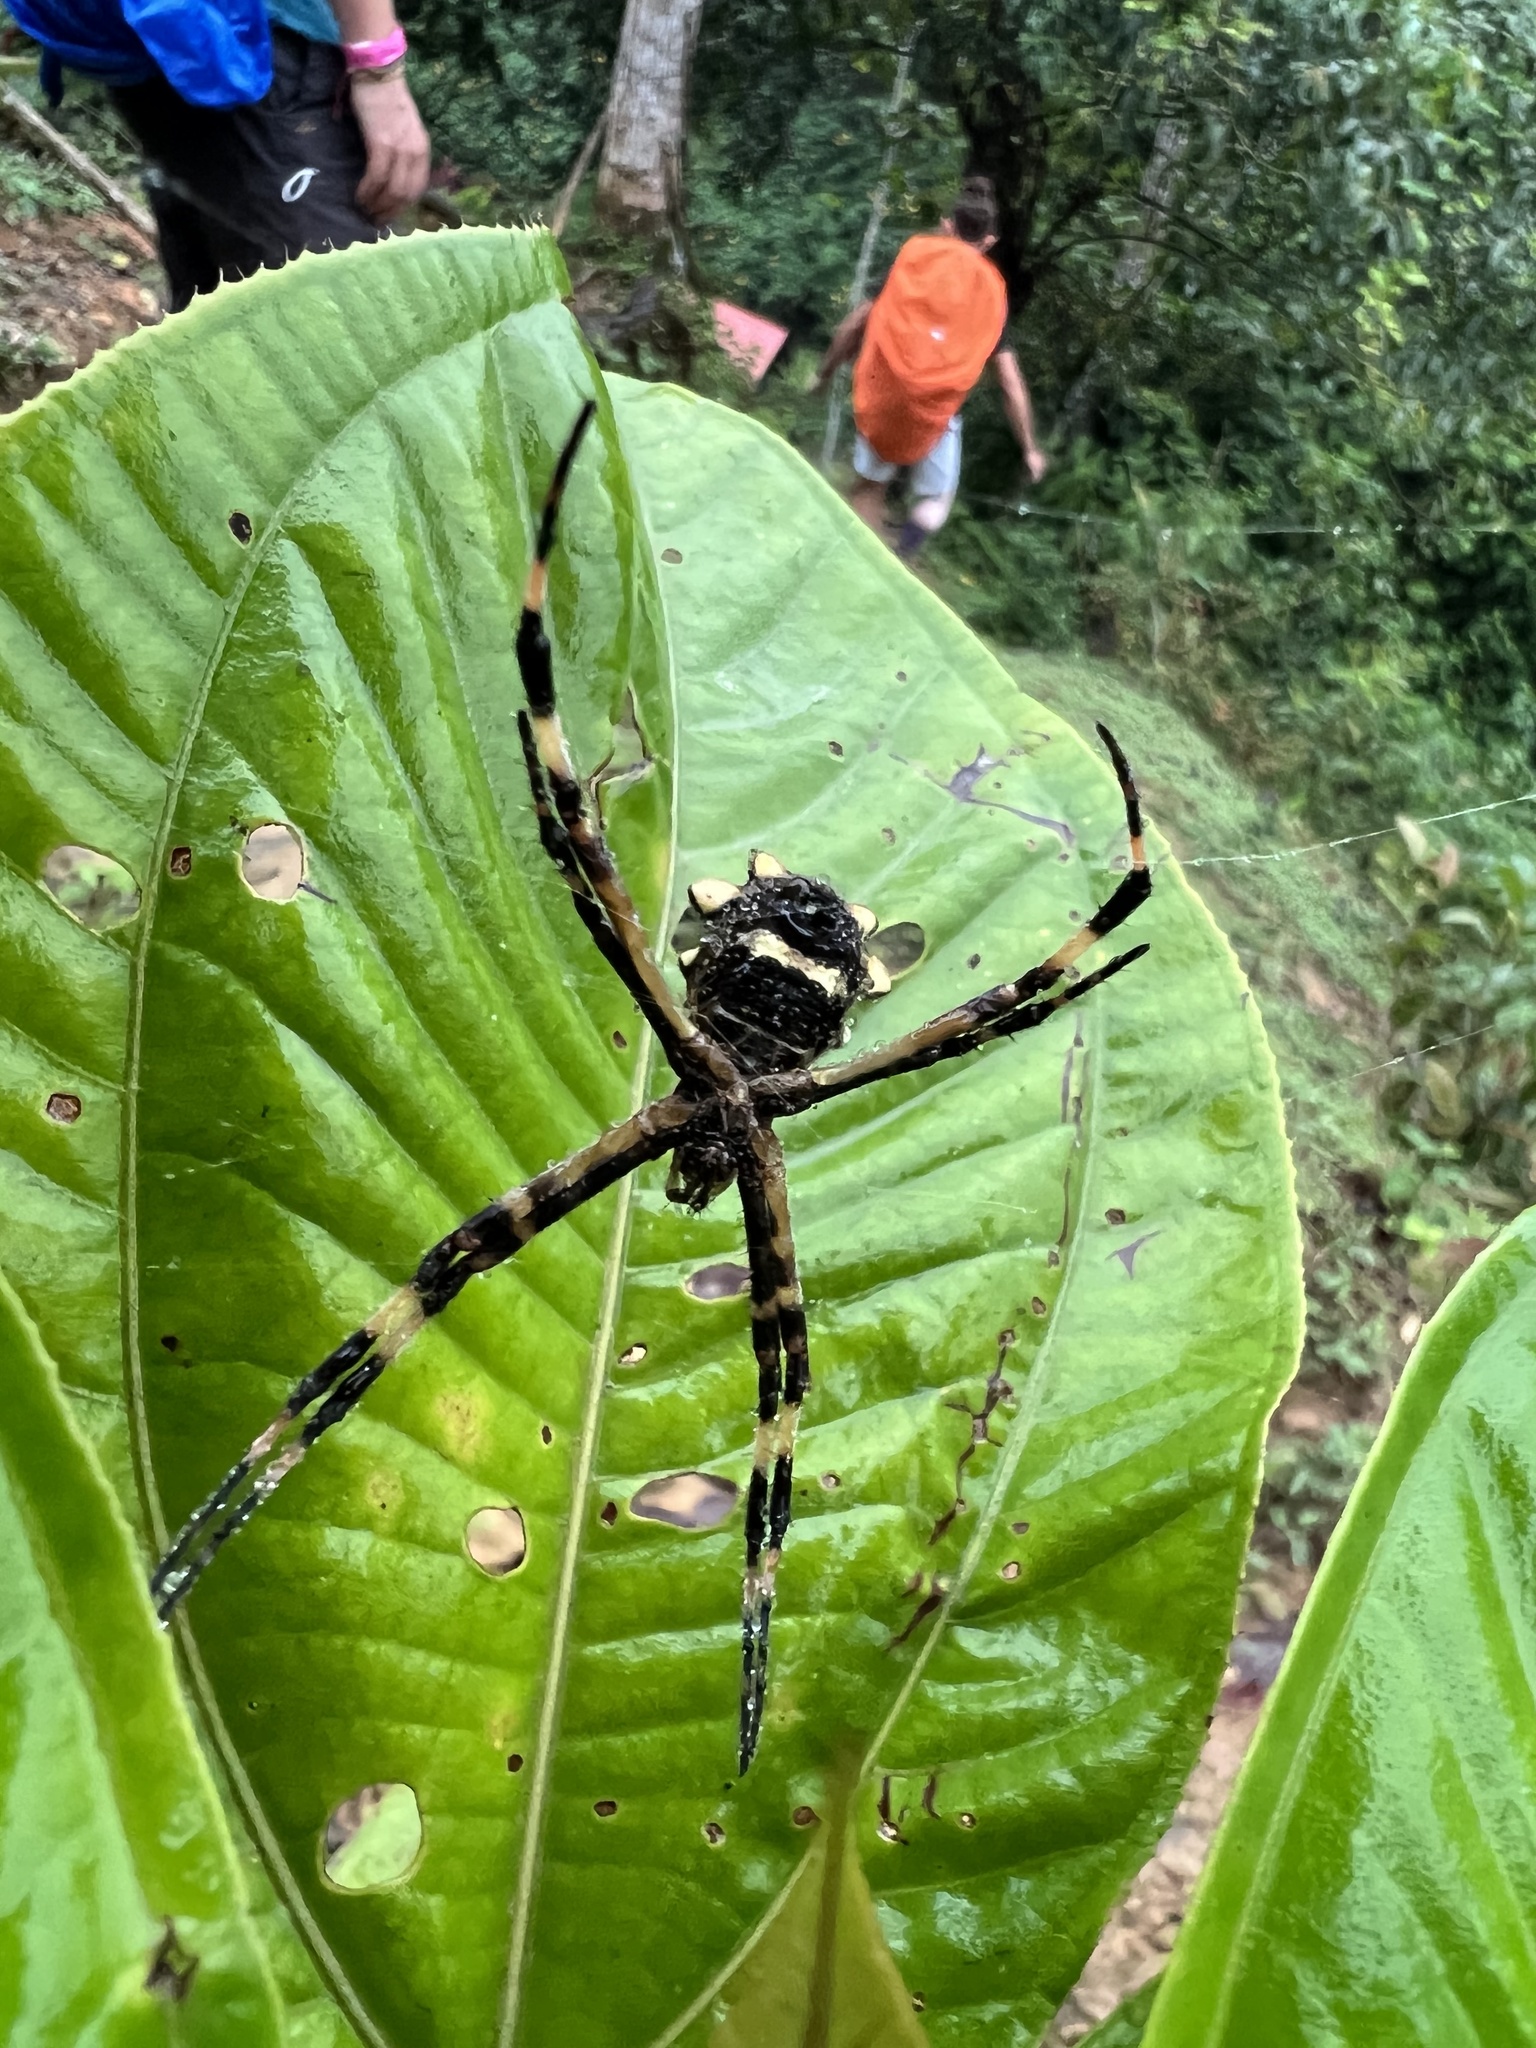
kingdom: Animalia
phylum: Arthropoda
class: Arachnida
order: Araneae
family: Araneidae
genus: Argiope
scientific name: Argiope argentata
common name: Orb weavers
